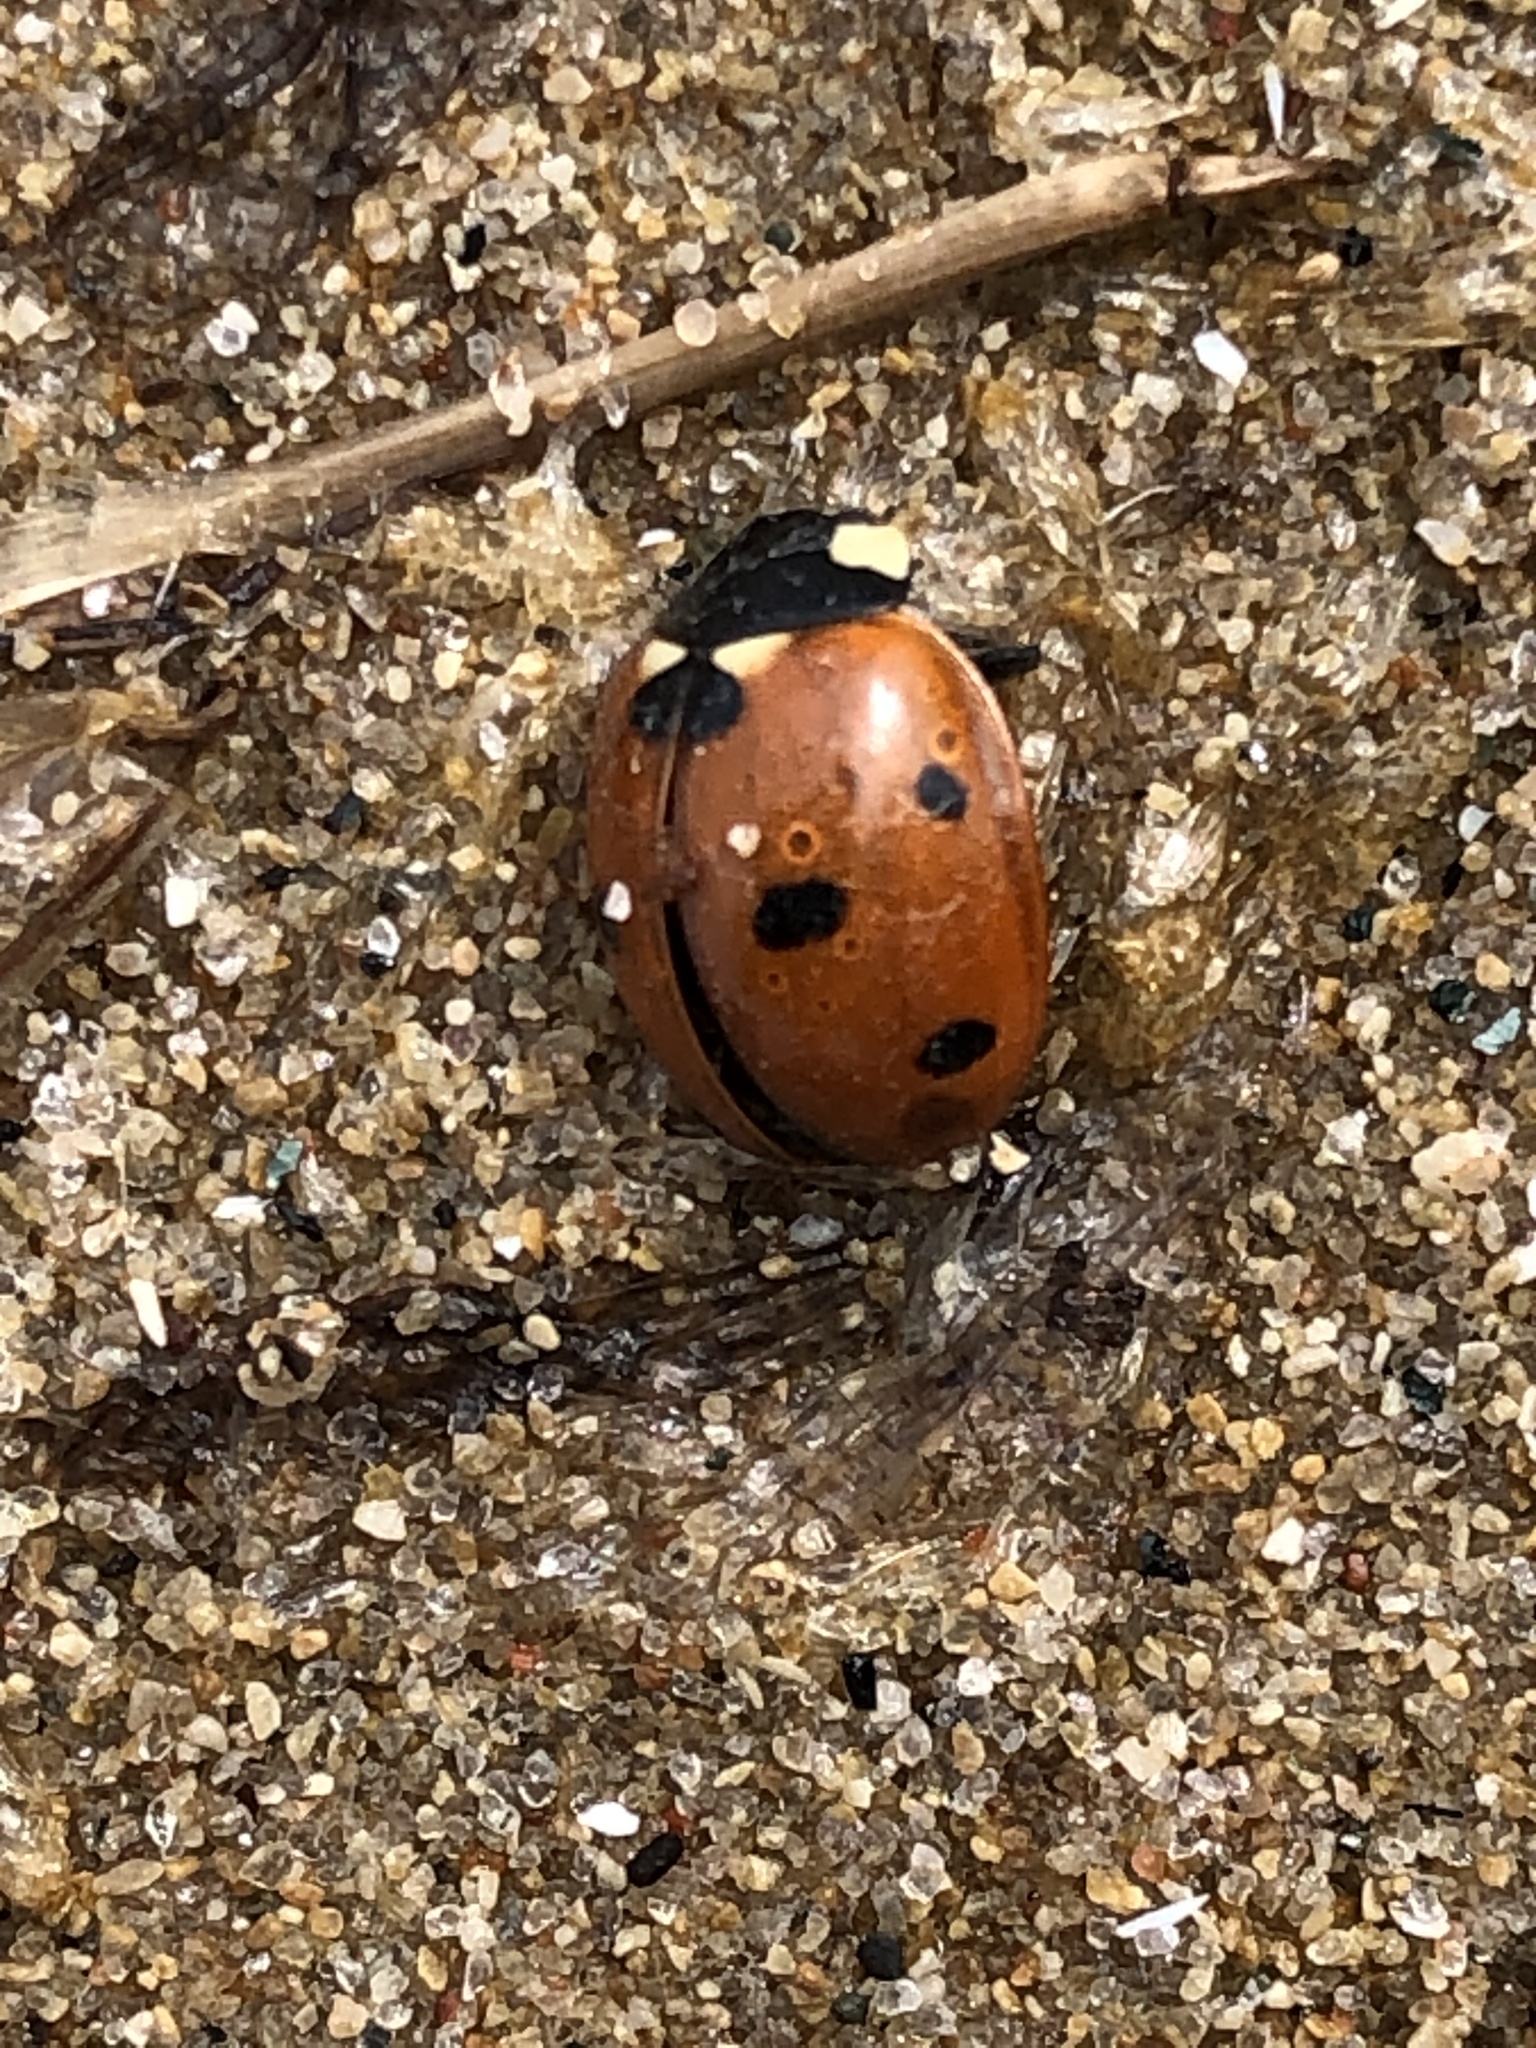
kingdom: Animalia
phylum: Arthropoda
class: Insecta
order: Coleoptera
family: Coccinellidae
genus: Coccinella
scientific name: Coccinella septempunctata
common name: Sevenspotted lady beetle
